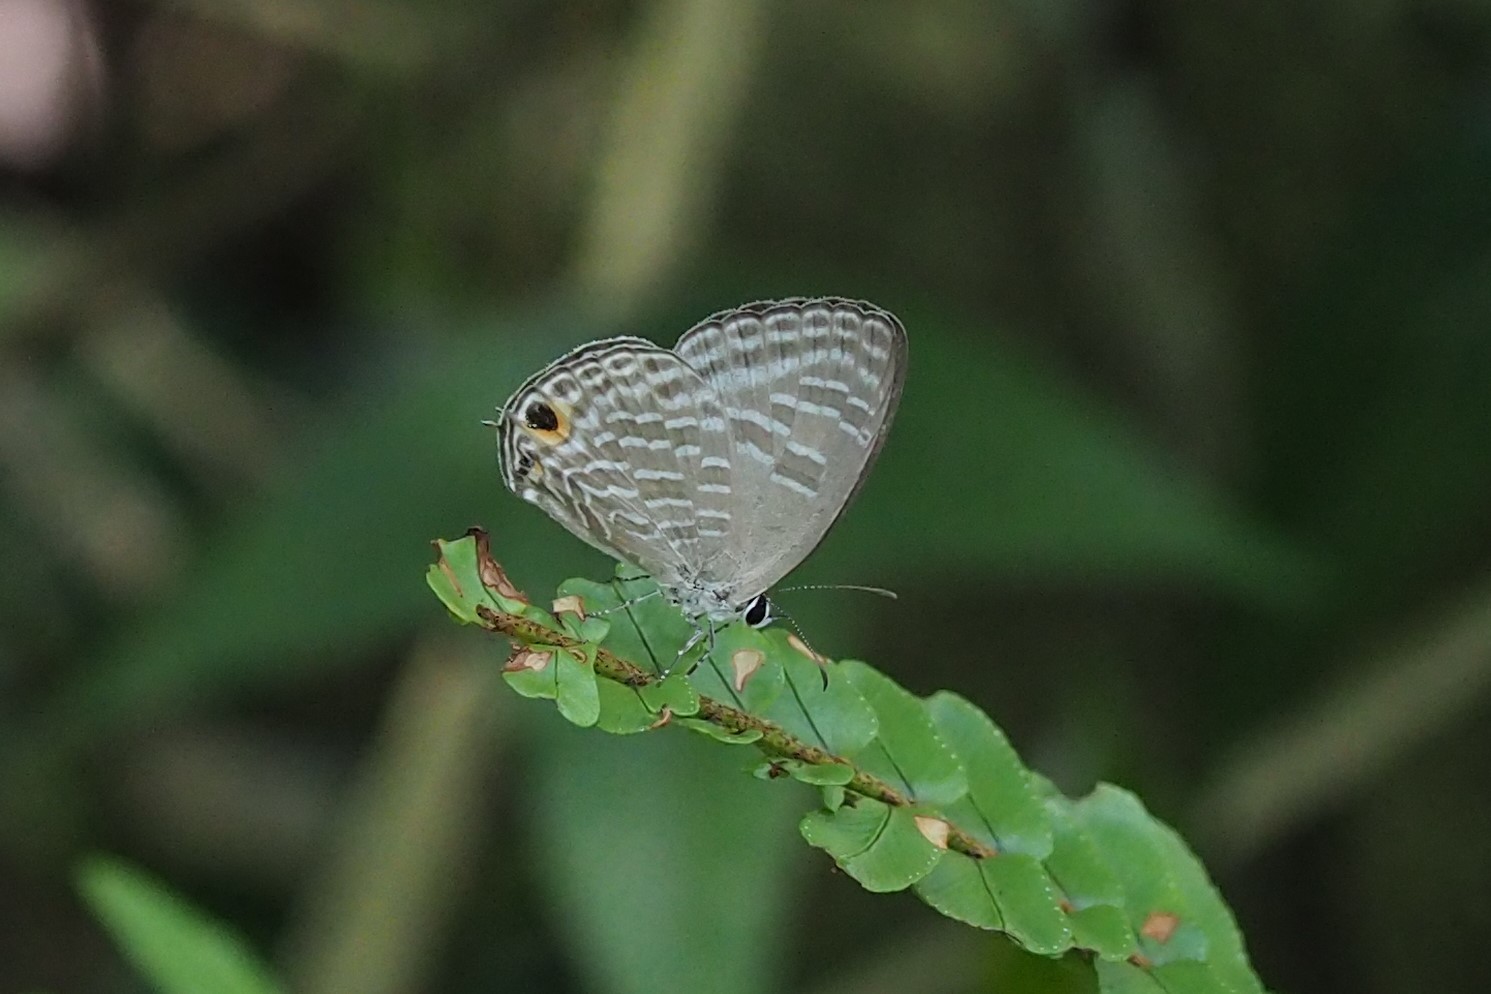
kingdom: Animalia
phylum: Arthropoda
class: Insecta
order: Lepidoptera
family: Lycaenidae
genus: Jamides
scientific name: Jamides alecto
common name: Metallic cerulean
